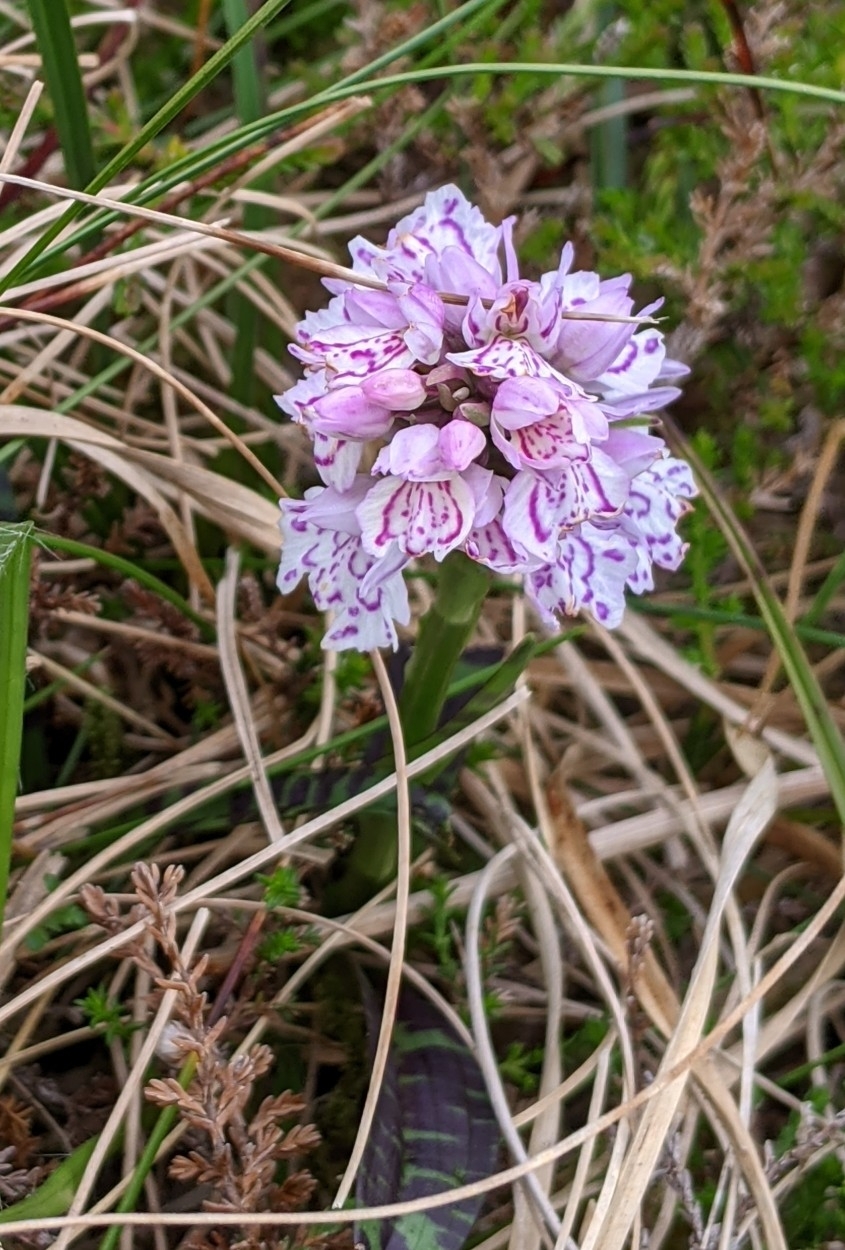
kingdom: Plantae
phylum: Tracheophyta
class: Liliopsida
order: Asparagales
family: Orchidaceae
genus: Dactylorhiza
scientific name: Dactylorhiza maculata
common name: Heath spotted-orchid
